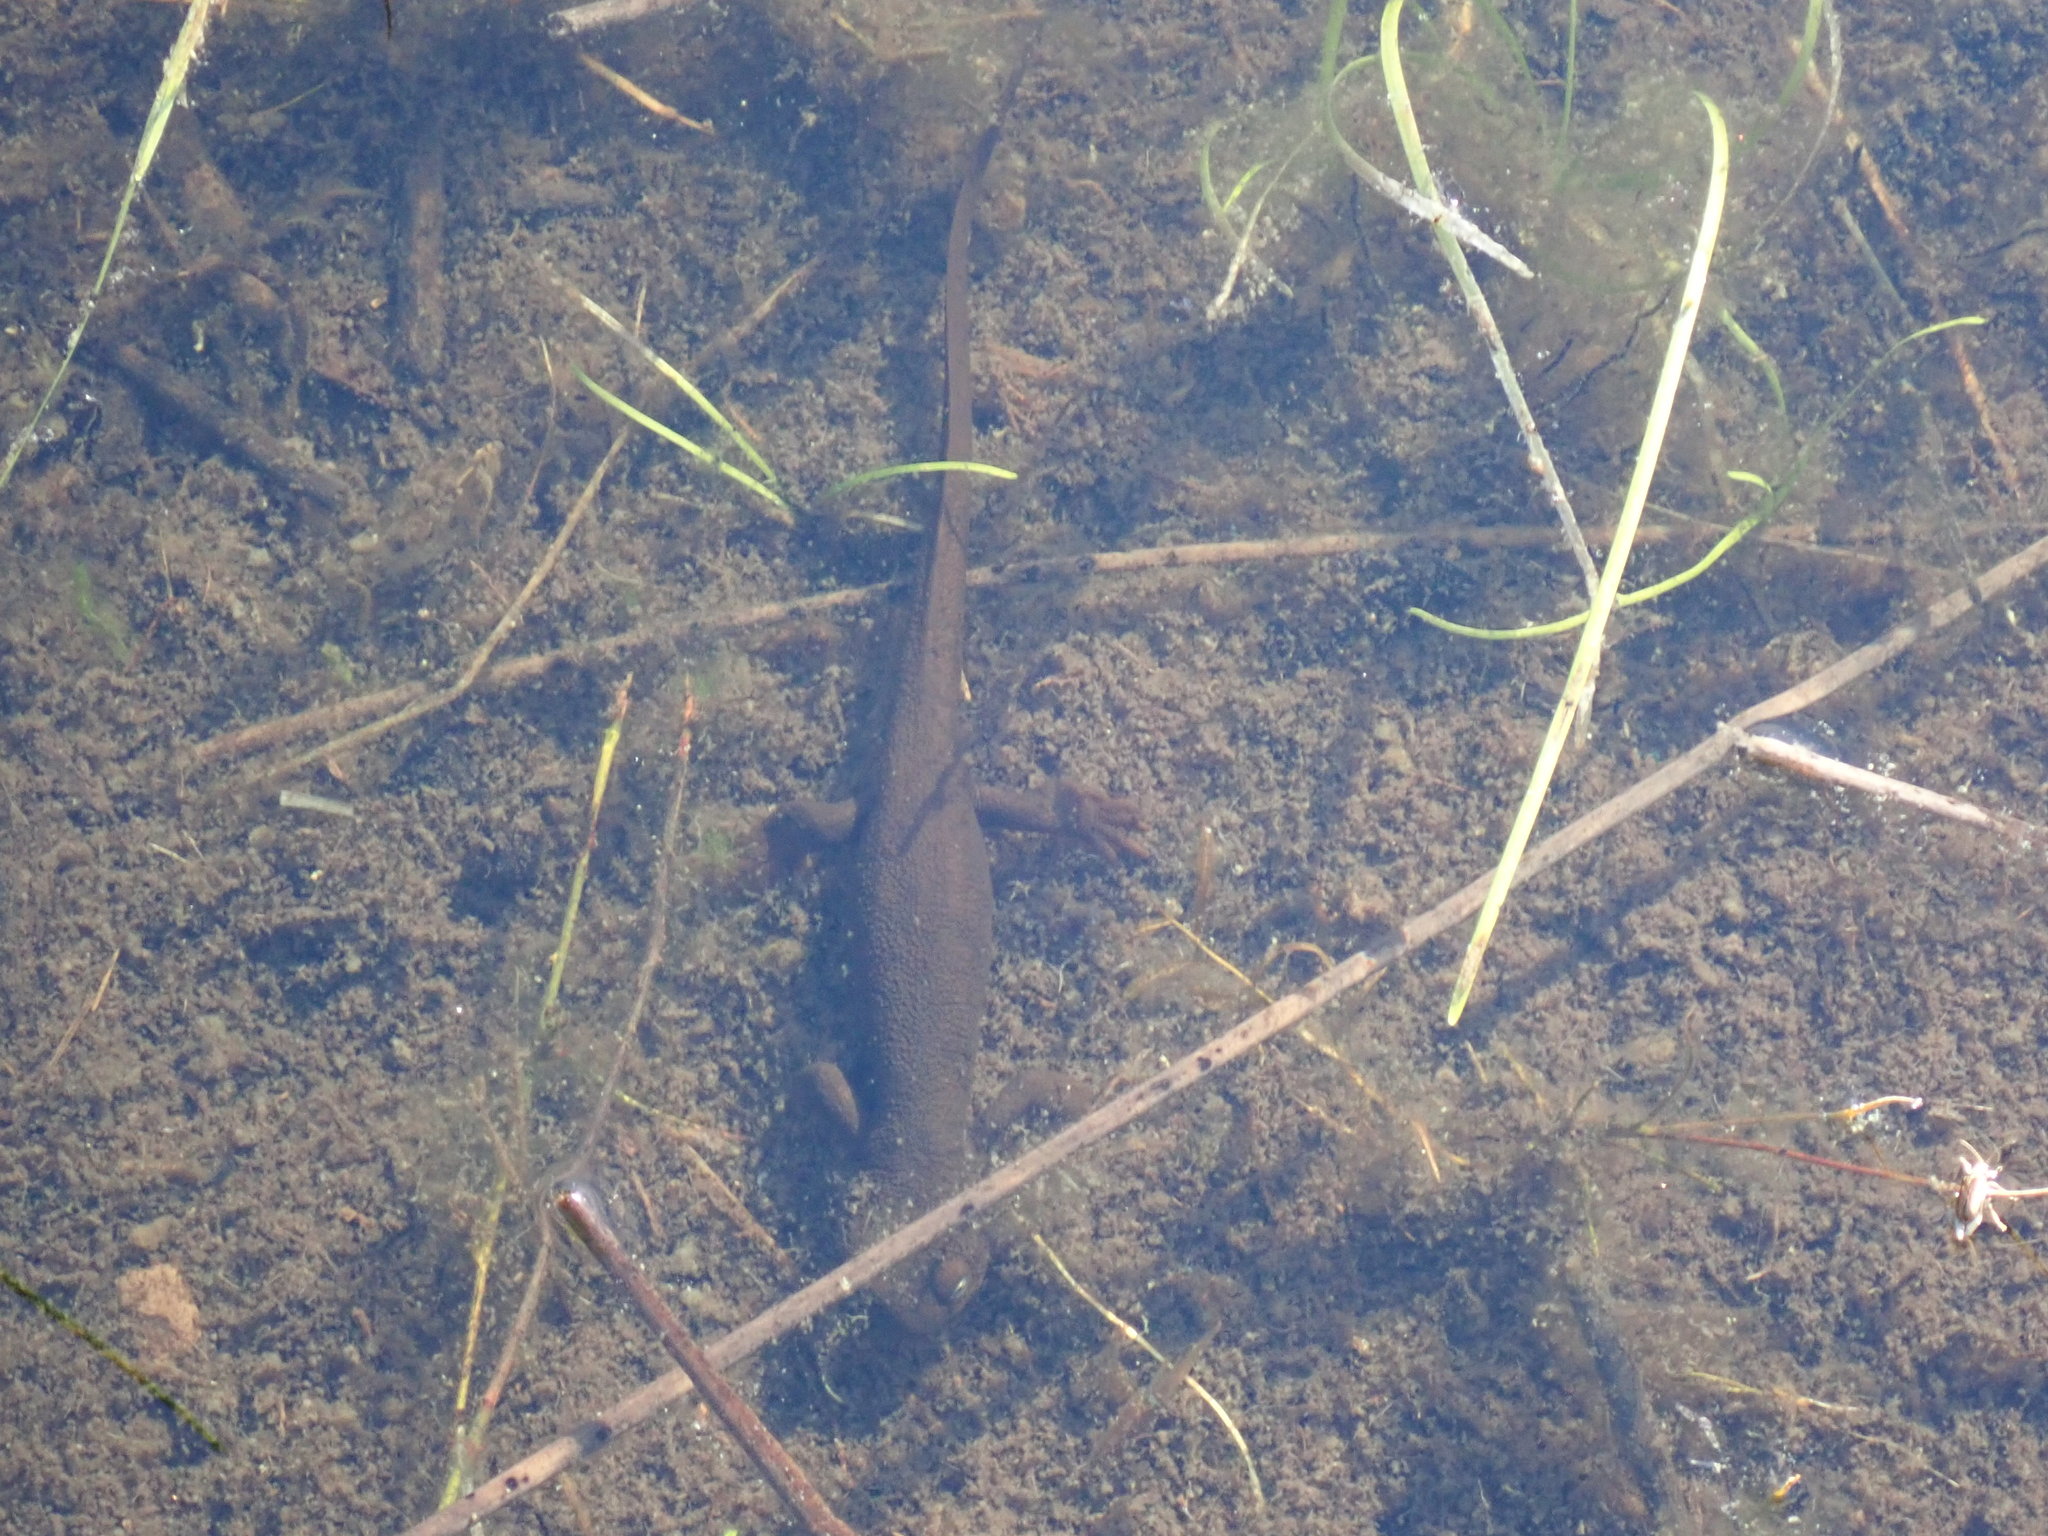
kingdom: Animalia
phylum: Chordata
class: Amphibia
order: Caudata
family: Salamandridae
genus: Taricha
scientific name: Taricha granulosa
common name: Roughskin newt
